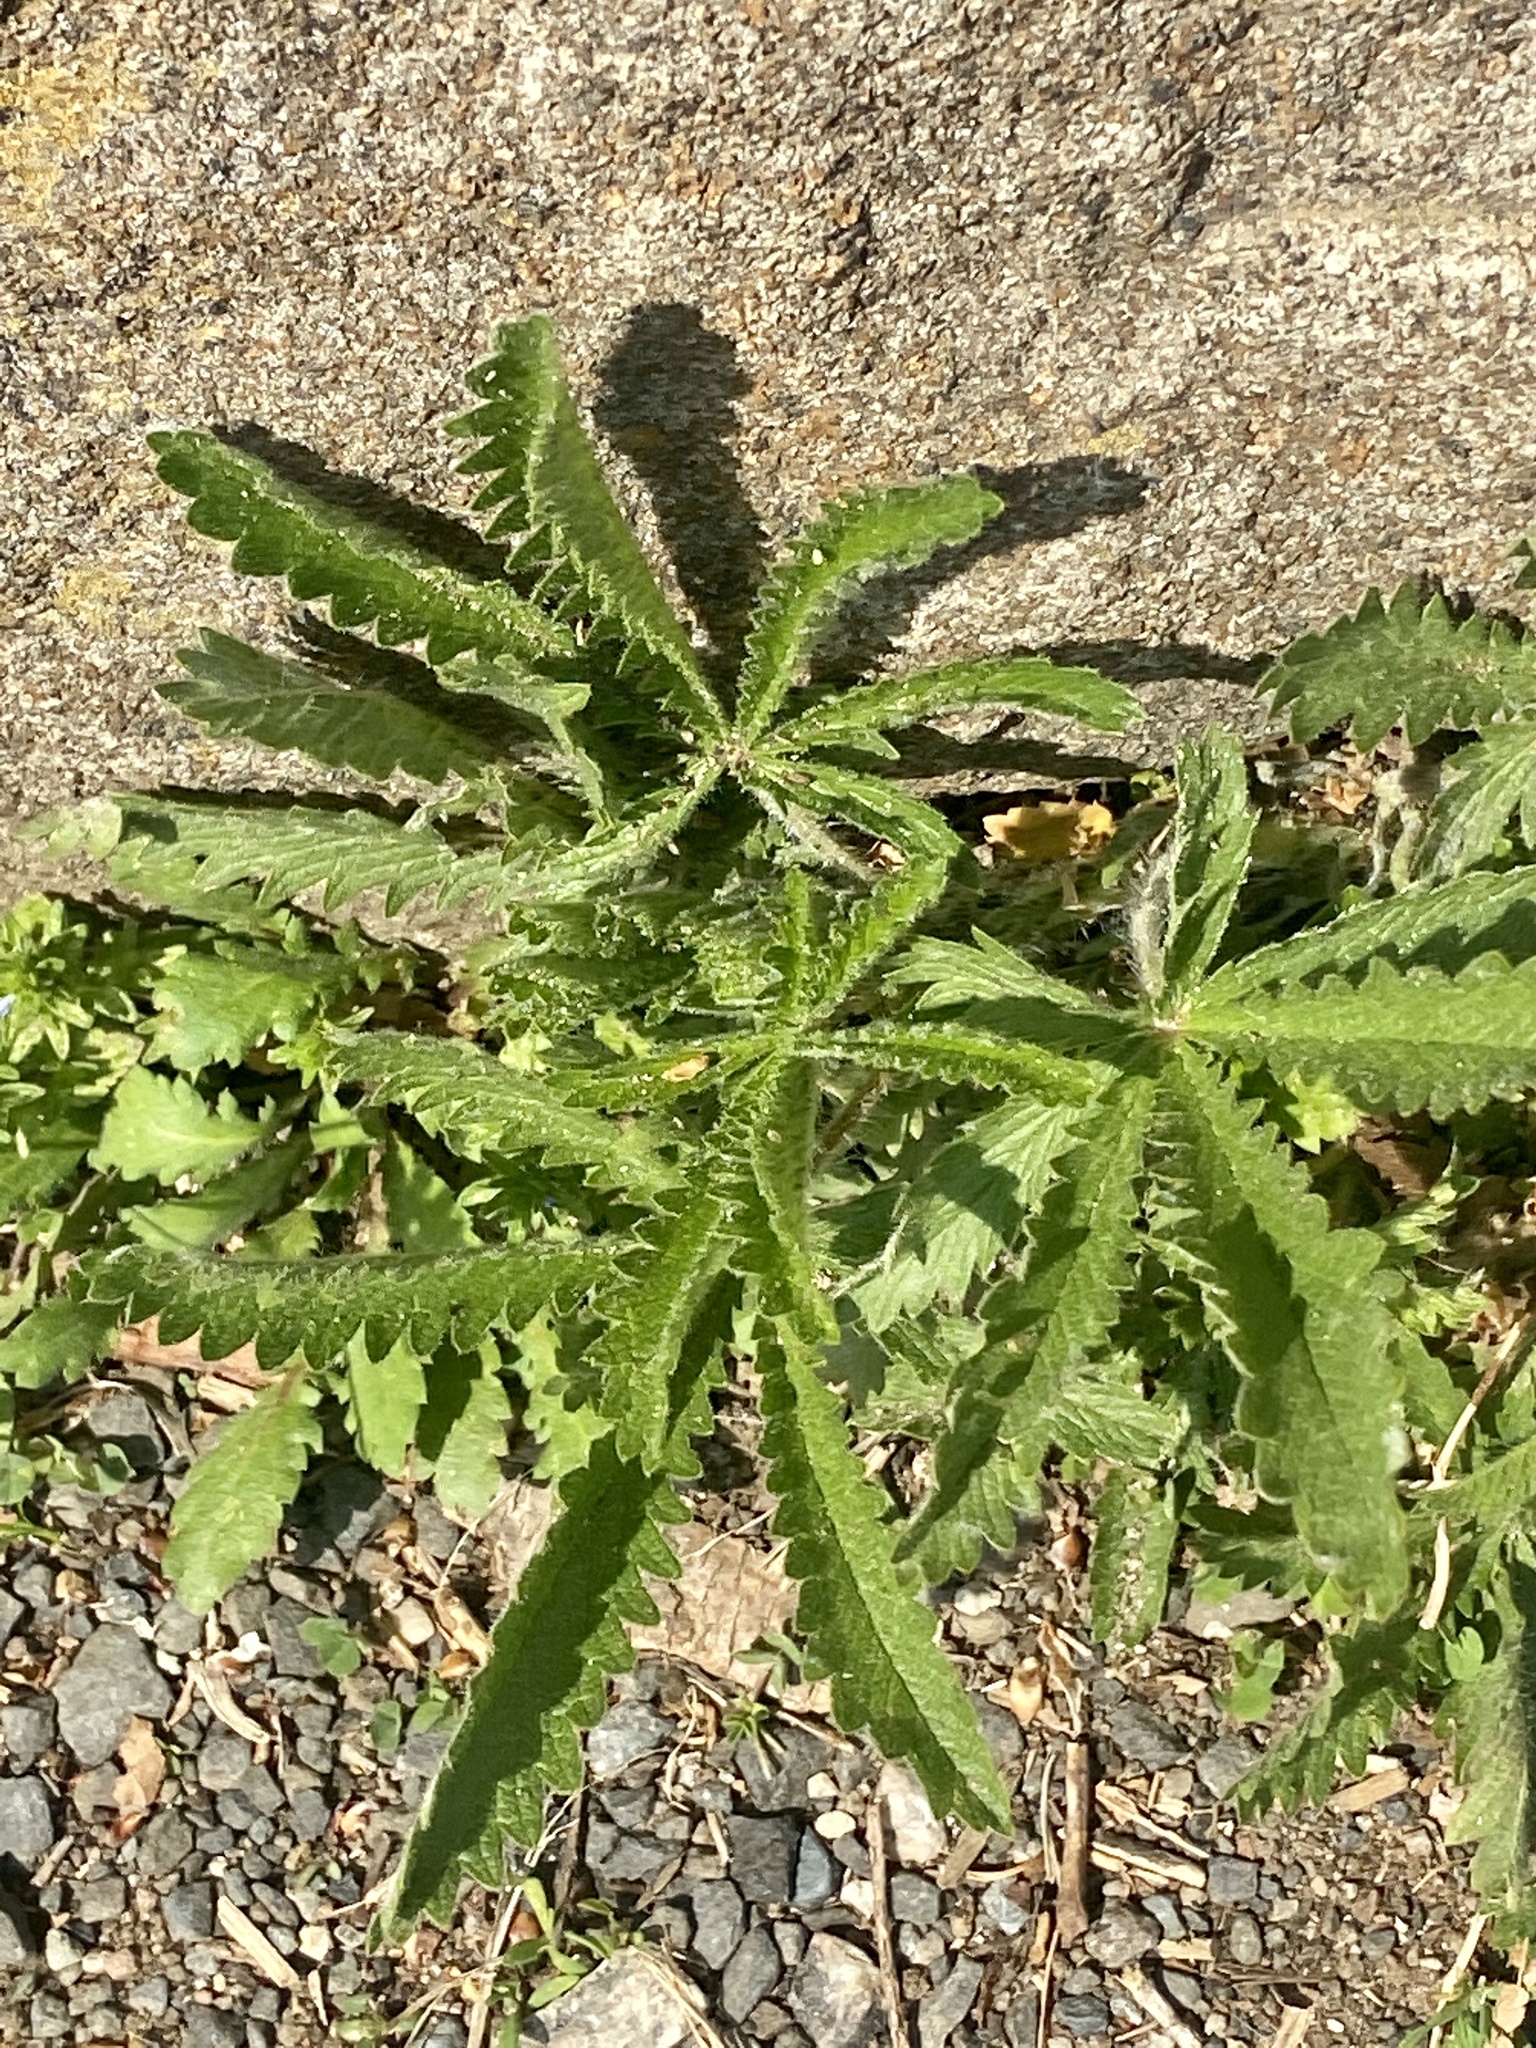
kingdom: Plantae
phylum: Tracheophyta
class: Magnoliopsida
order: Rosales
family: Rosaceae
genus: Potentilla
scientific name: Potentilla recta
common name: Sulphur cinquefoil
